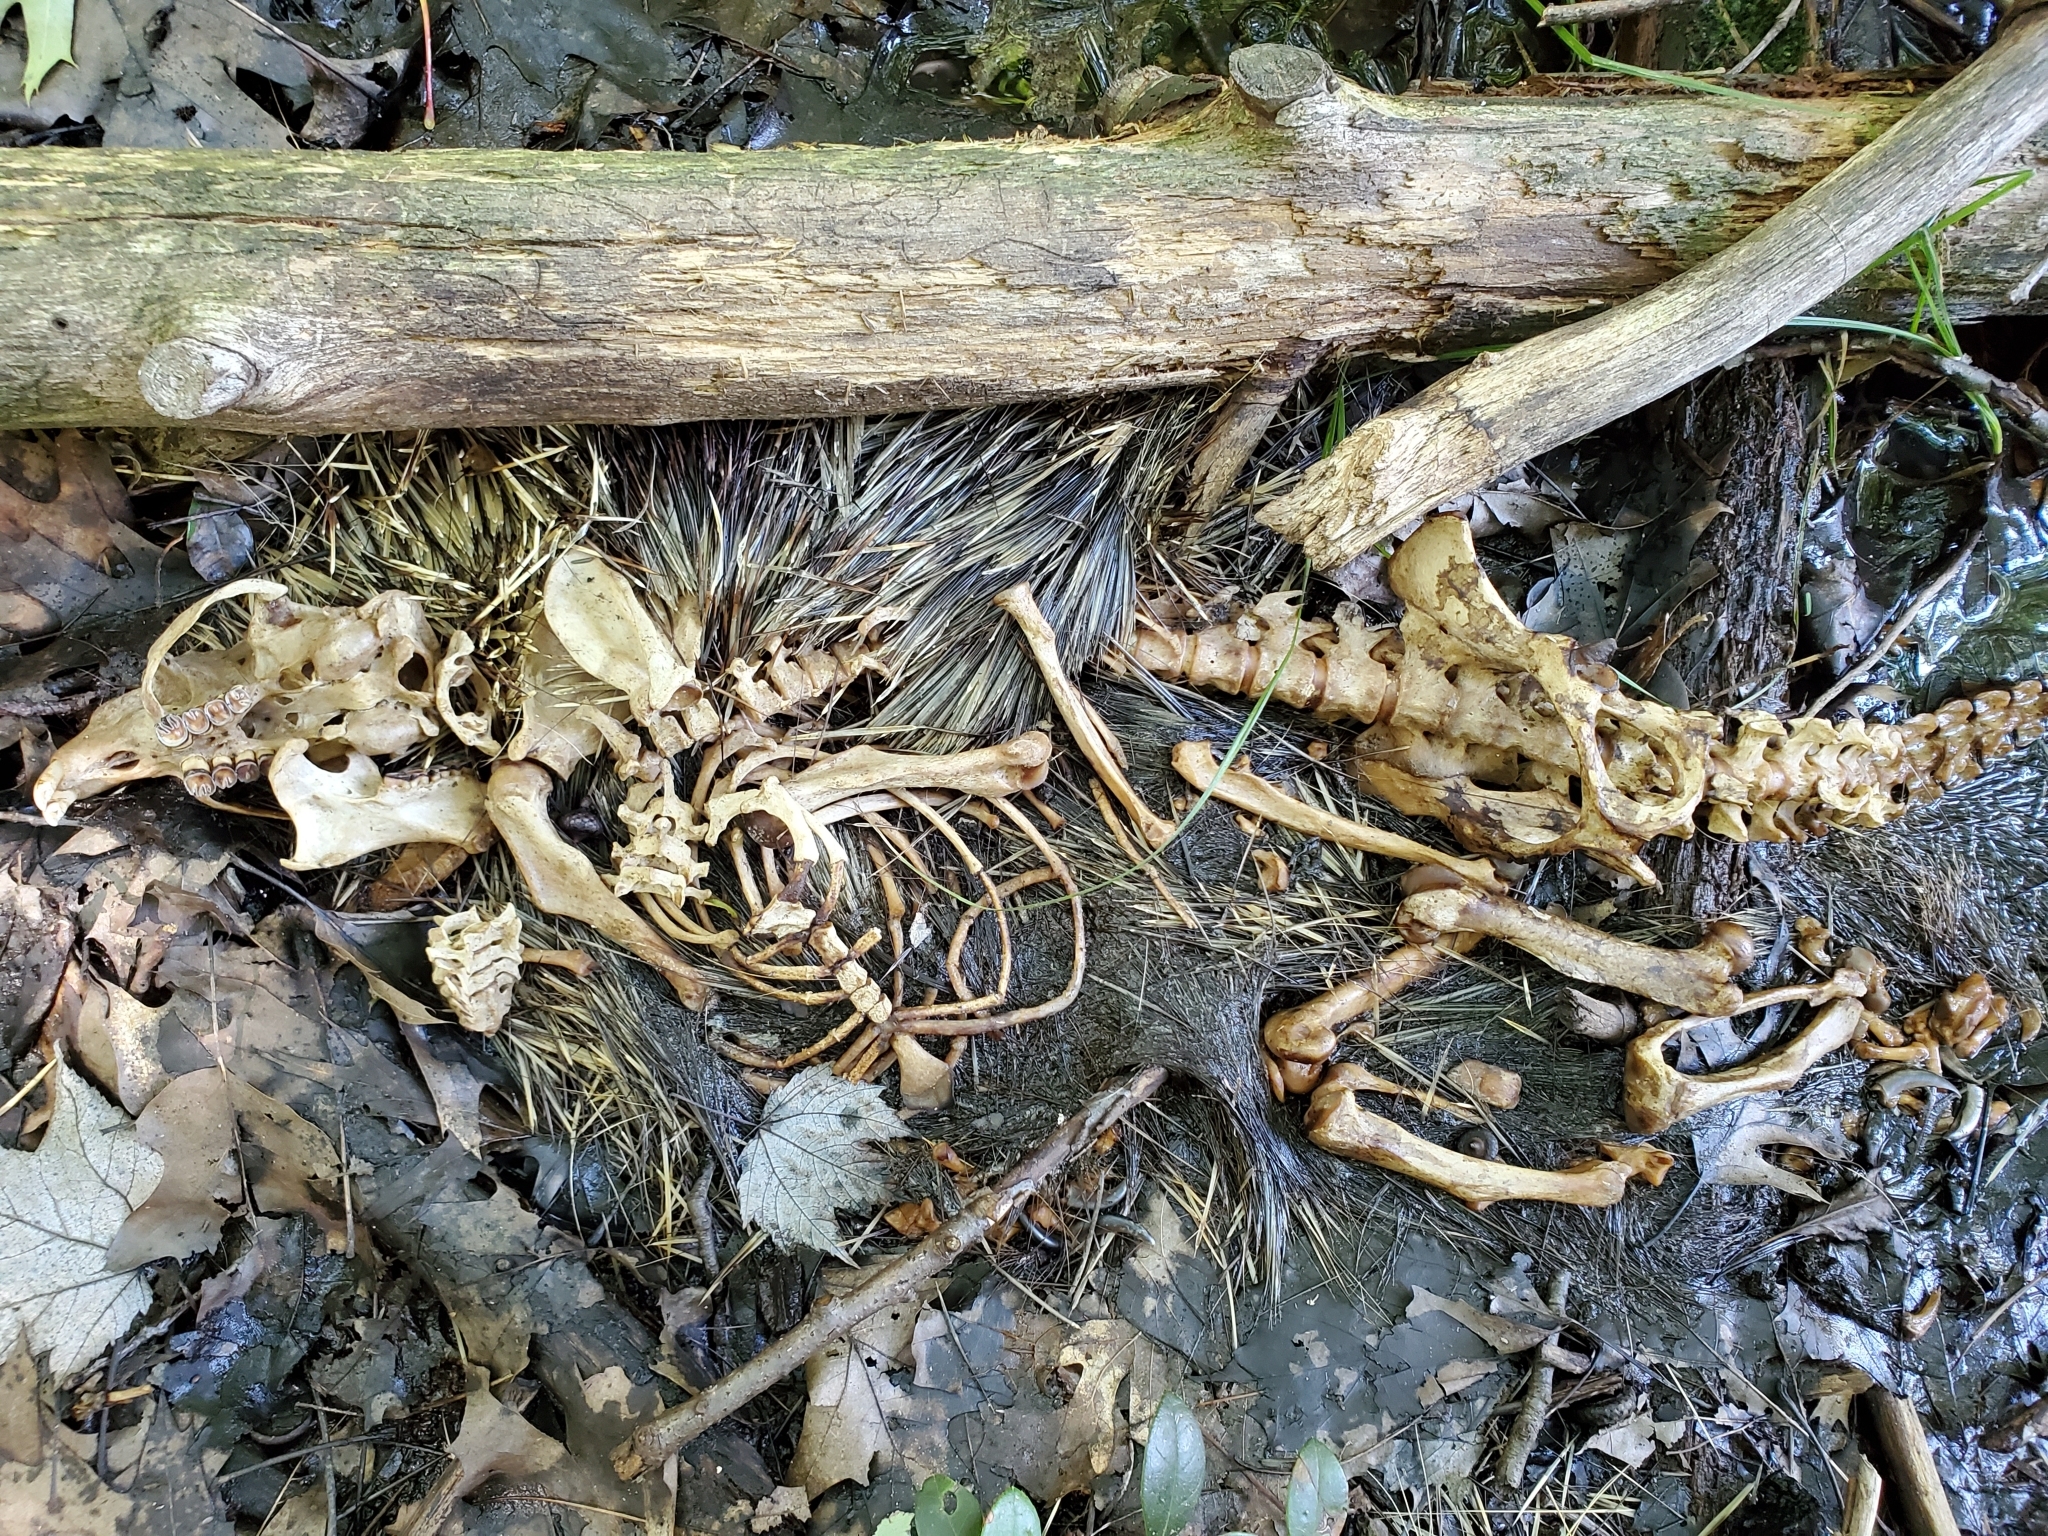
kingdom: Animalia
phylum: Chordata
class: Mammalia
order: Rodentia
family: Erethizontidae
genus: Erethizon
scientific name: Erethizon dorsatus
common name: North american porcupine
